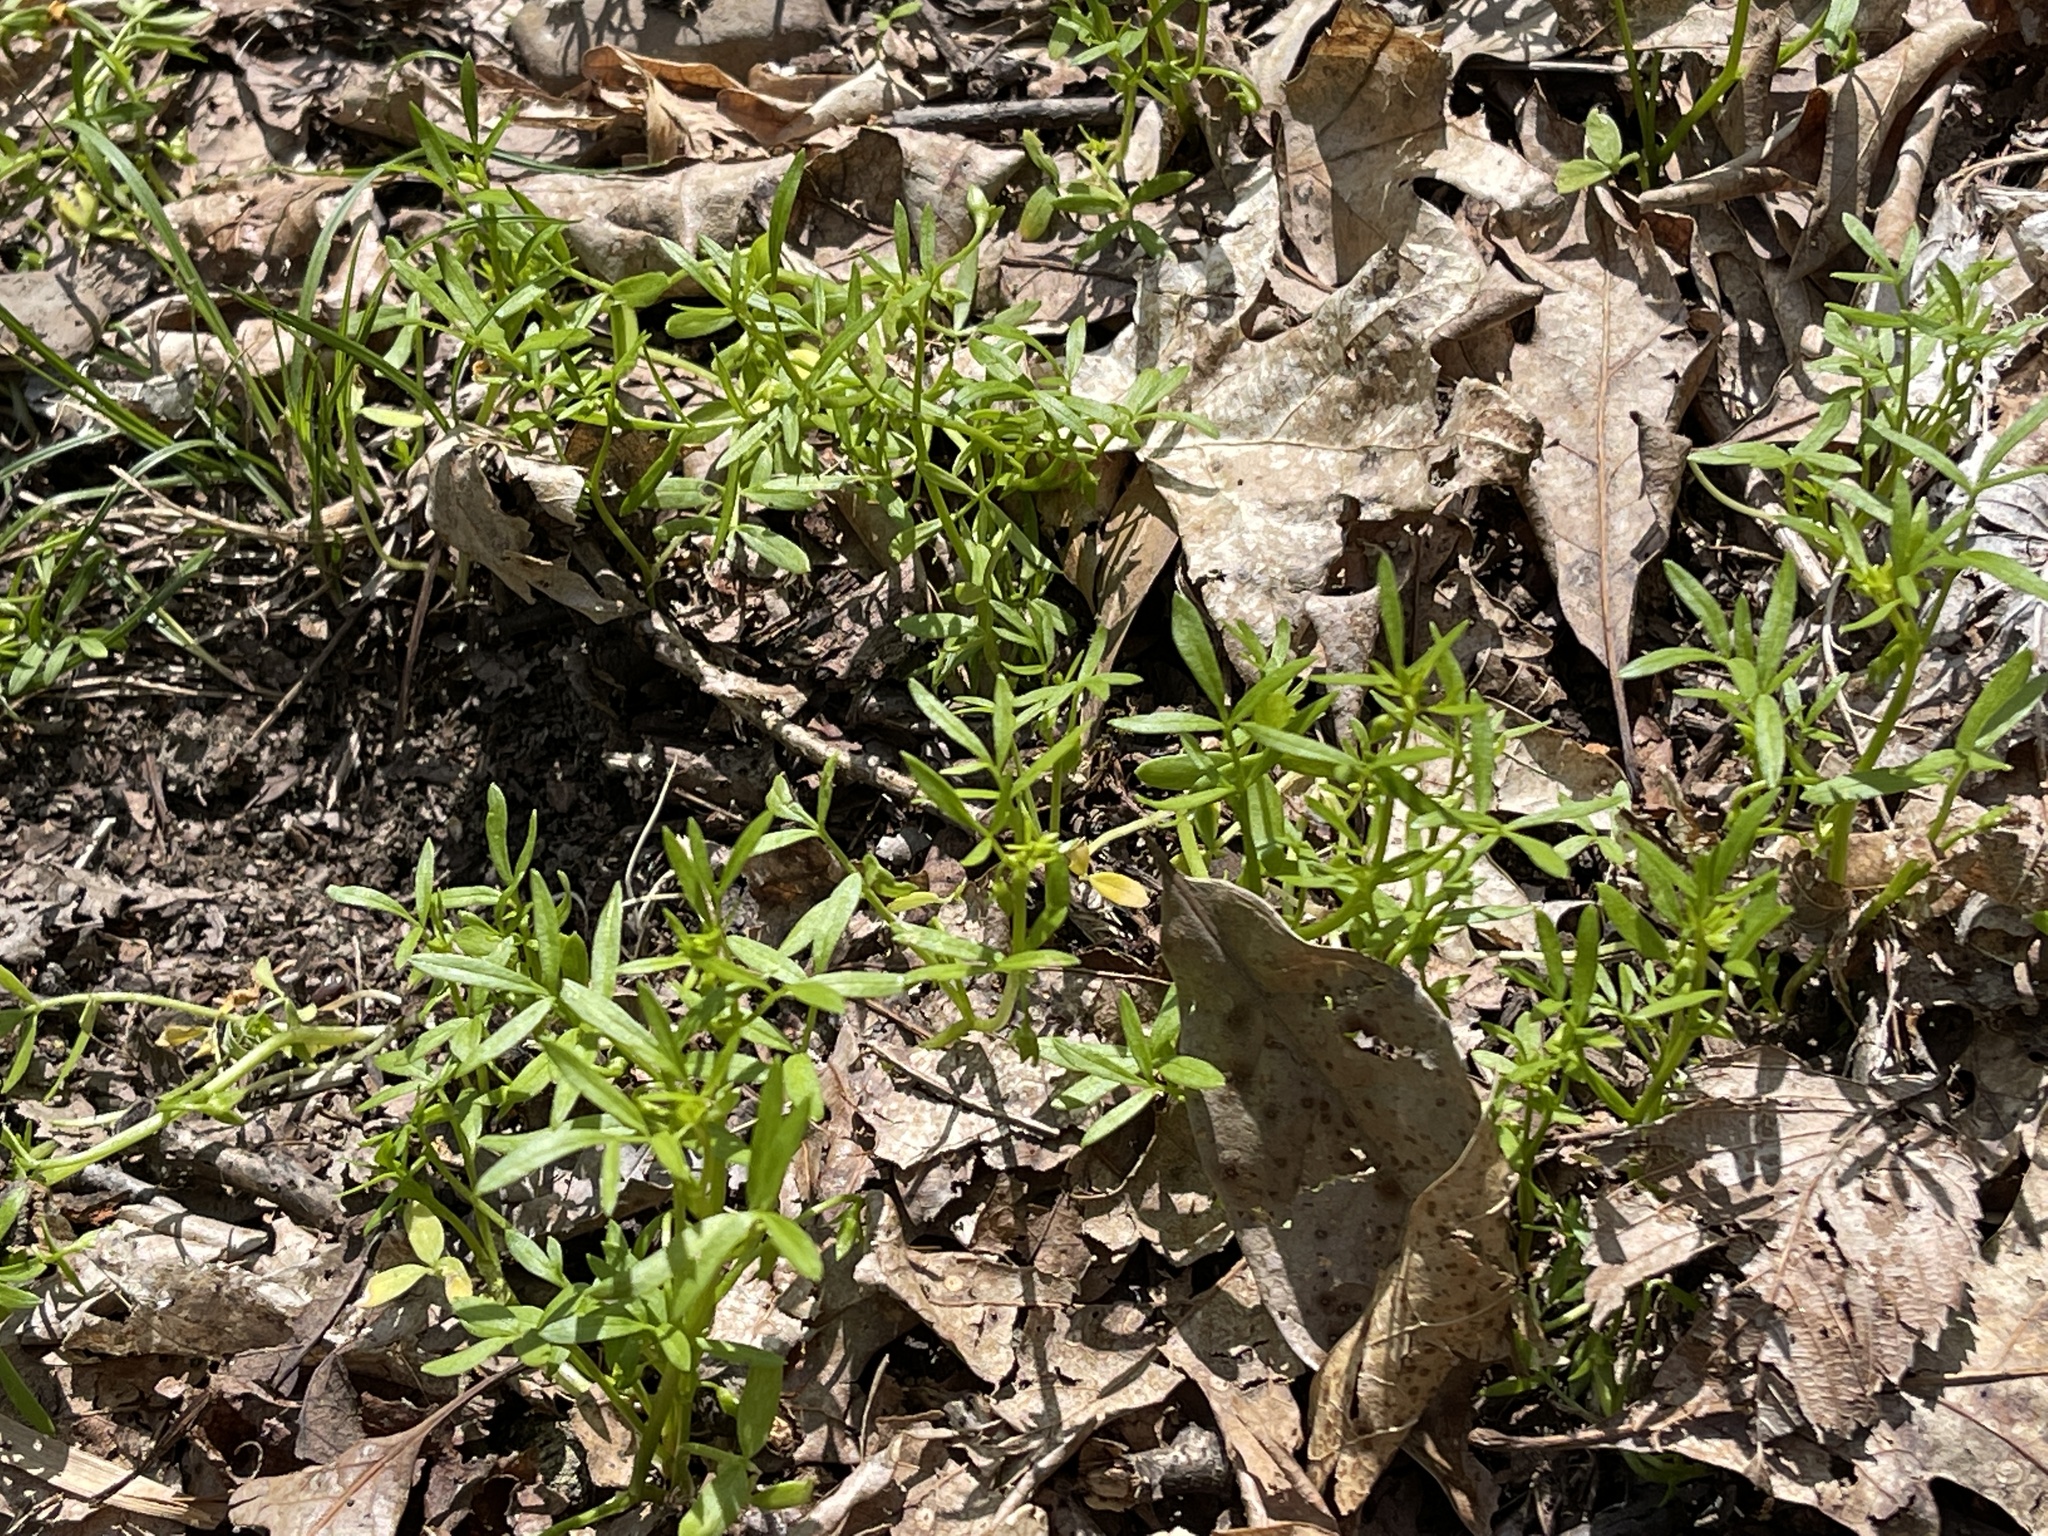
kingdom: Plantae
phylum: Tracheophyta
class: Magnoliopsida
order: Brassicales
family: Limnanthaceae
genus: Floerkea
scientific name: Floerkea proserpinacoides
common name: False mermaid
